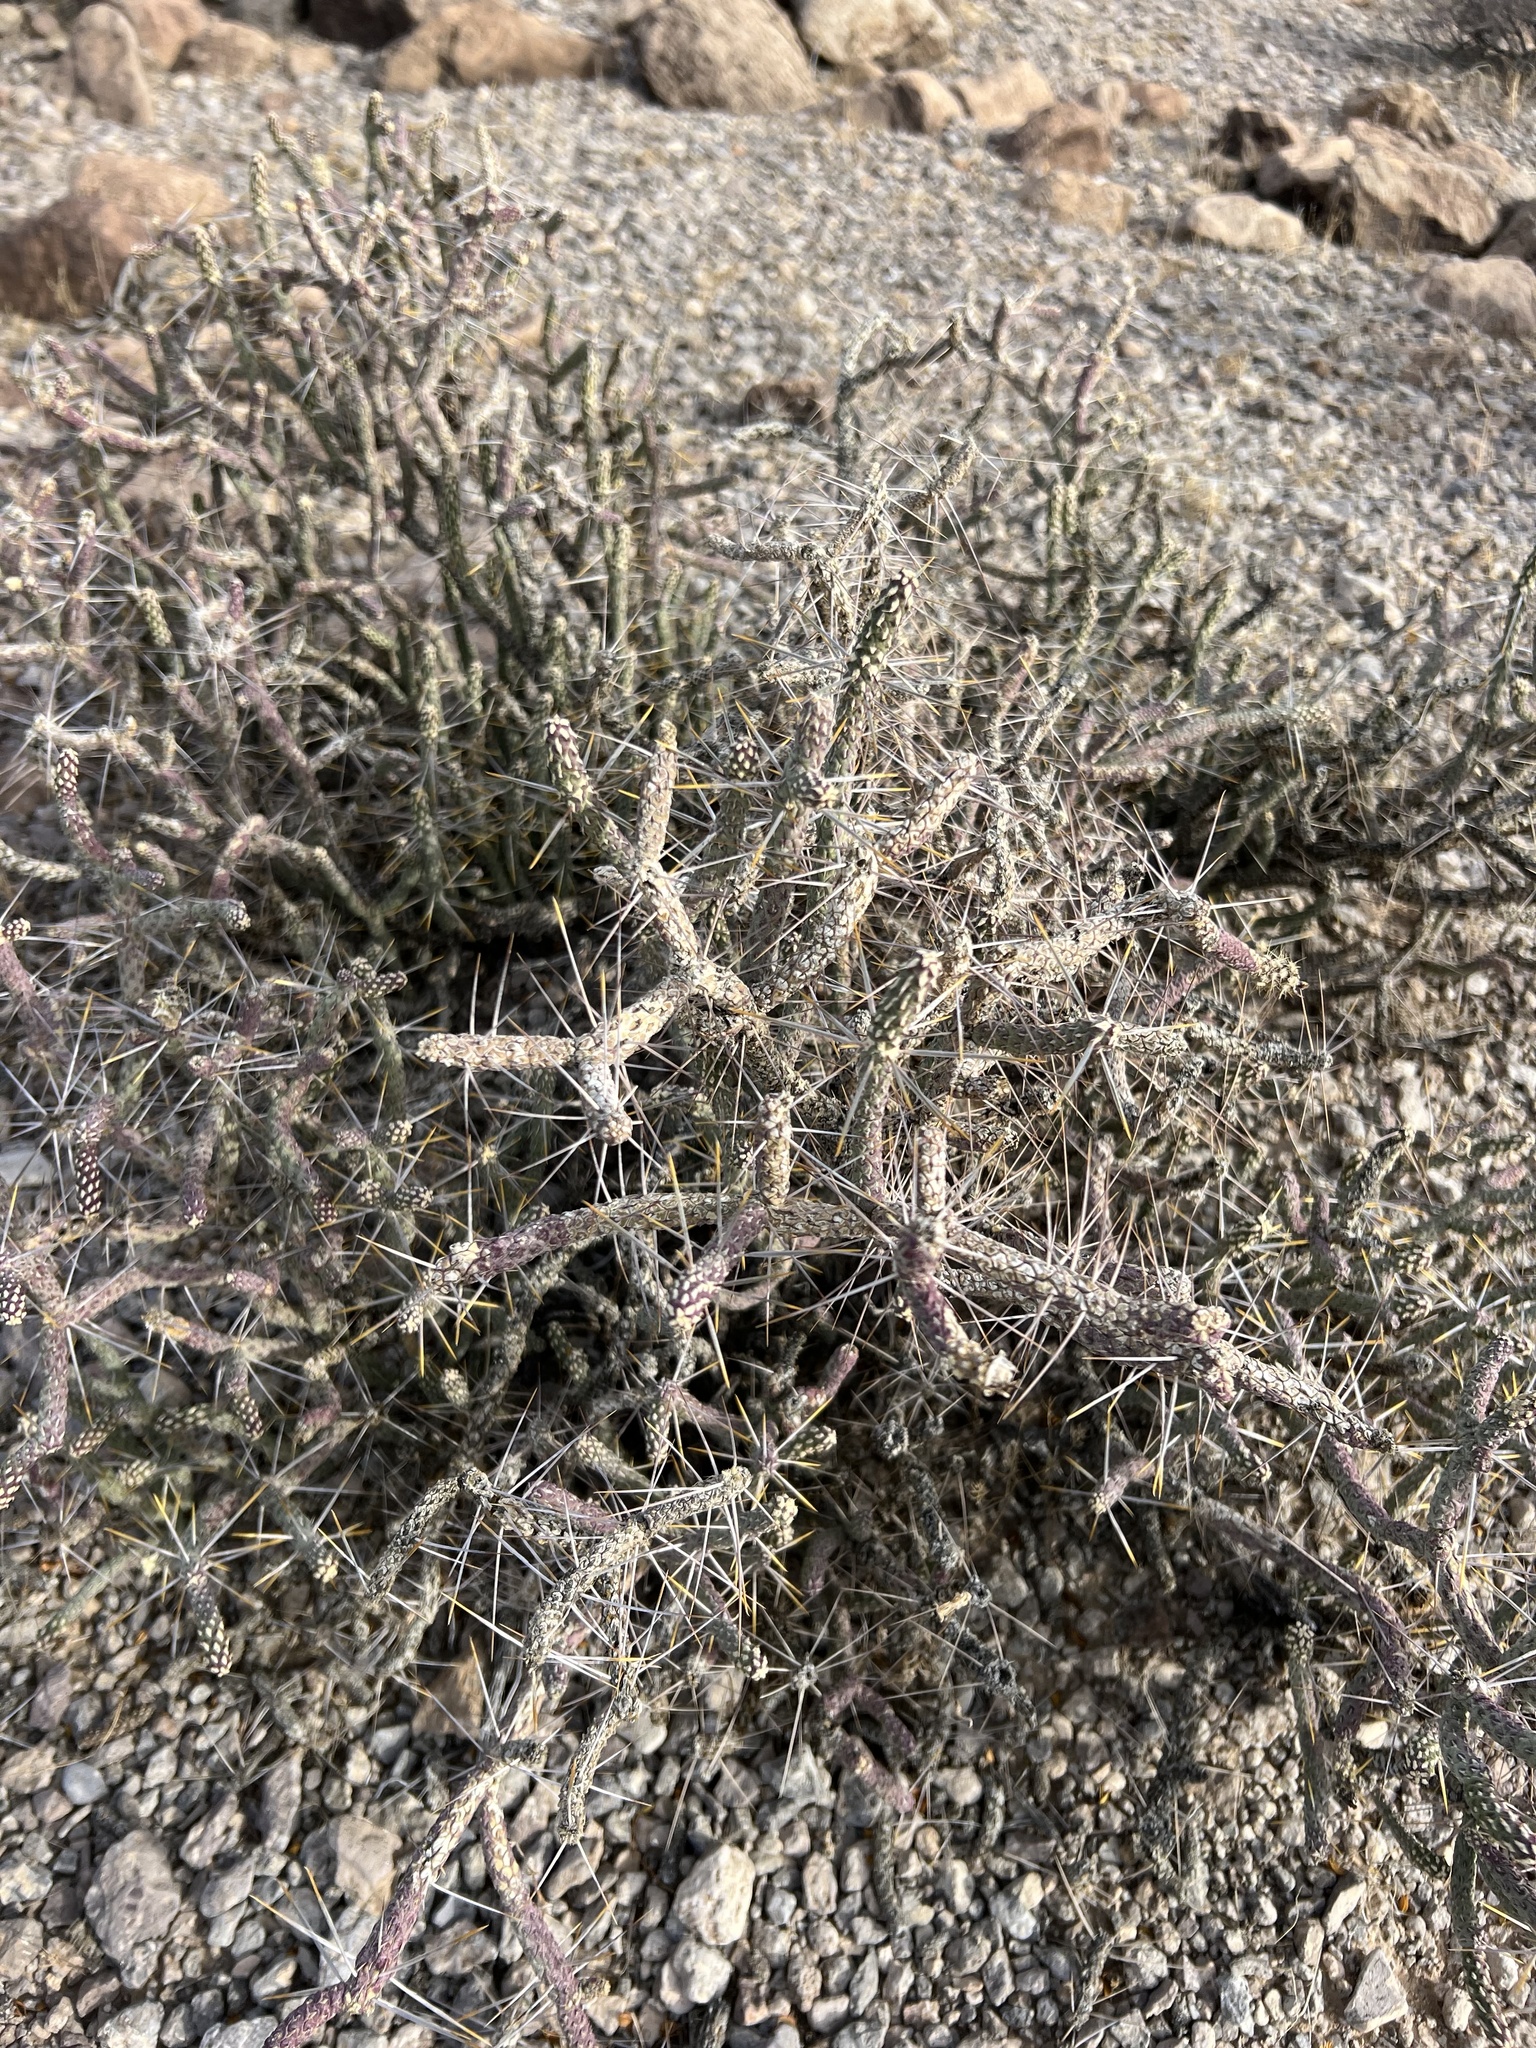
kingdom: Plantae
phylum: Tracheophyta
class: Magnoliopsida
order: Caryophyllales
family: Cactaceae
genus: Cylindropuntia
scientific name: Cylindropuntia ramosissima
